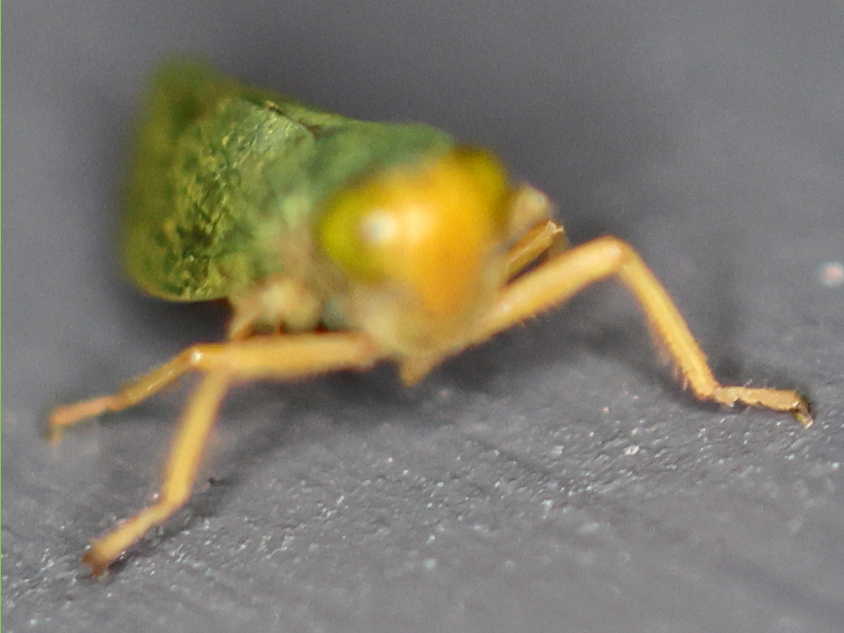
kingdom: Animalia
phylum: Arthropoda
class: Insecta
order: Hemiptera
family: Cicadellidae
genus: Jikradia
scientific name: Jikradia olitoria
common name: Coppery leafhopper
